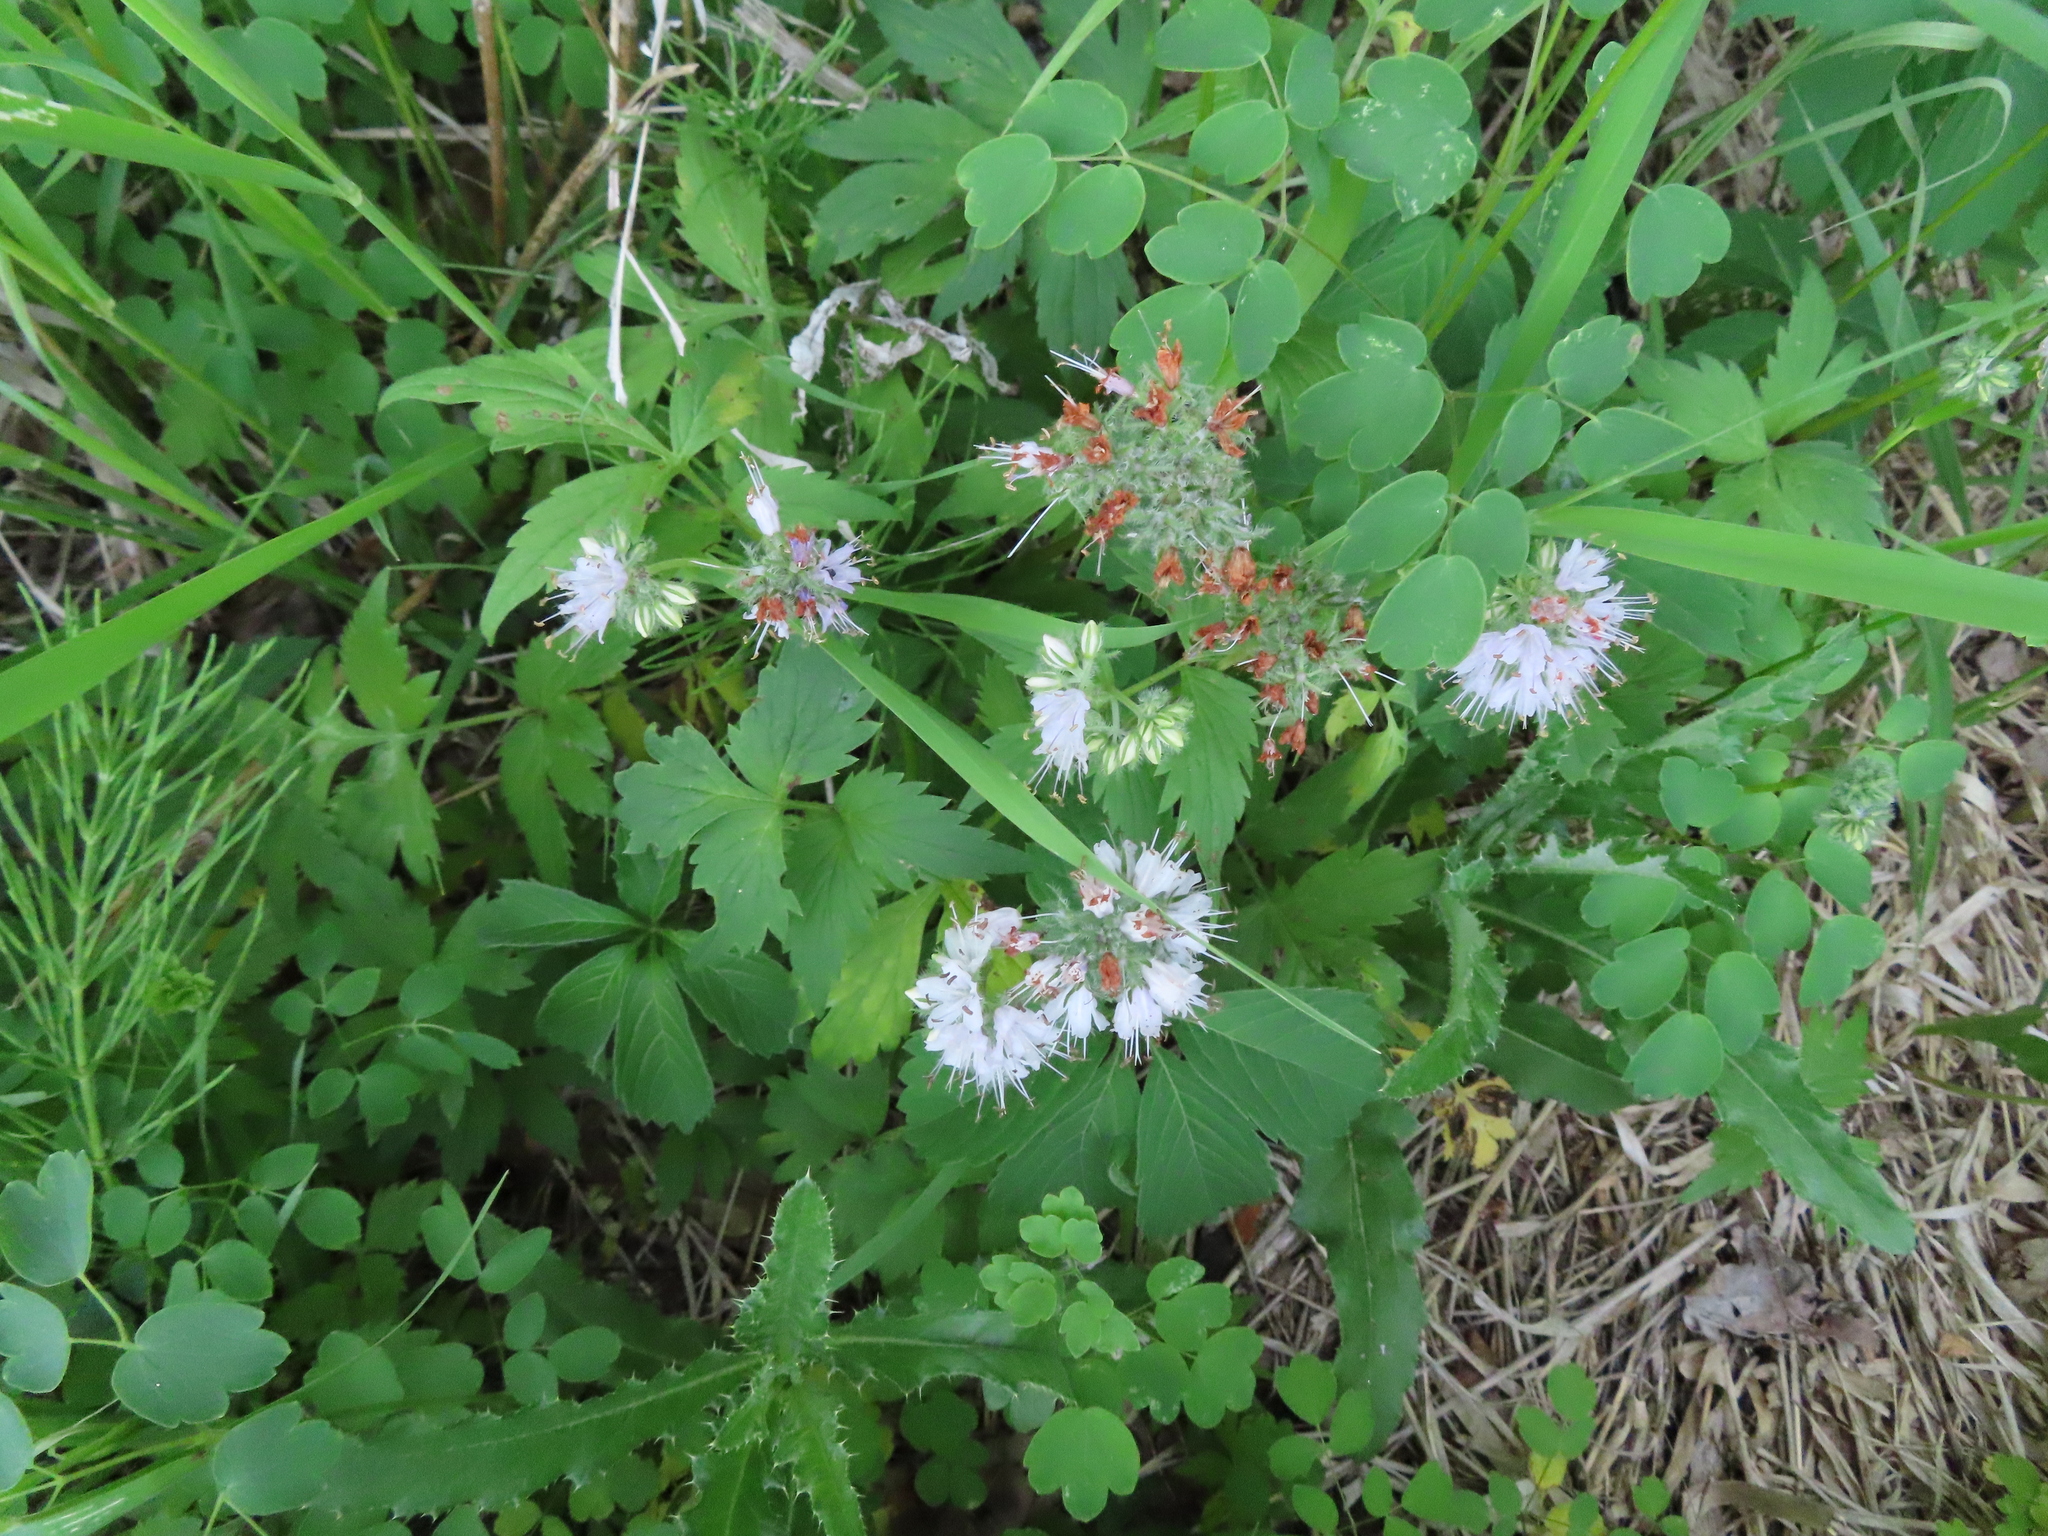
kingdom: Plantae
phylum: Tracheophyta
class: Magnoliopsida
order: Boraginales
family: Hydrophyllaceae
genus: Hydrophyllum
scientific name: Hydrophyllum virginianum
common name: Virginia waterleaf
